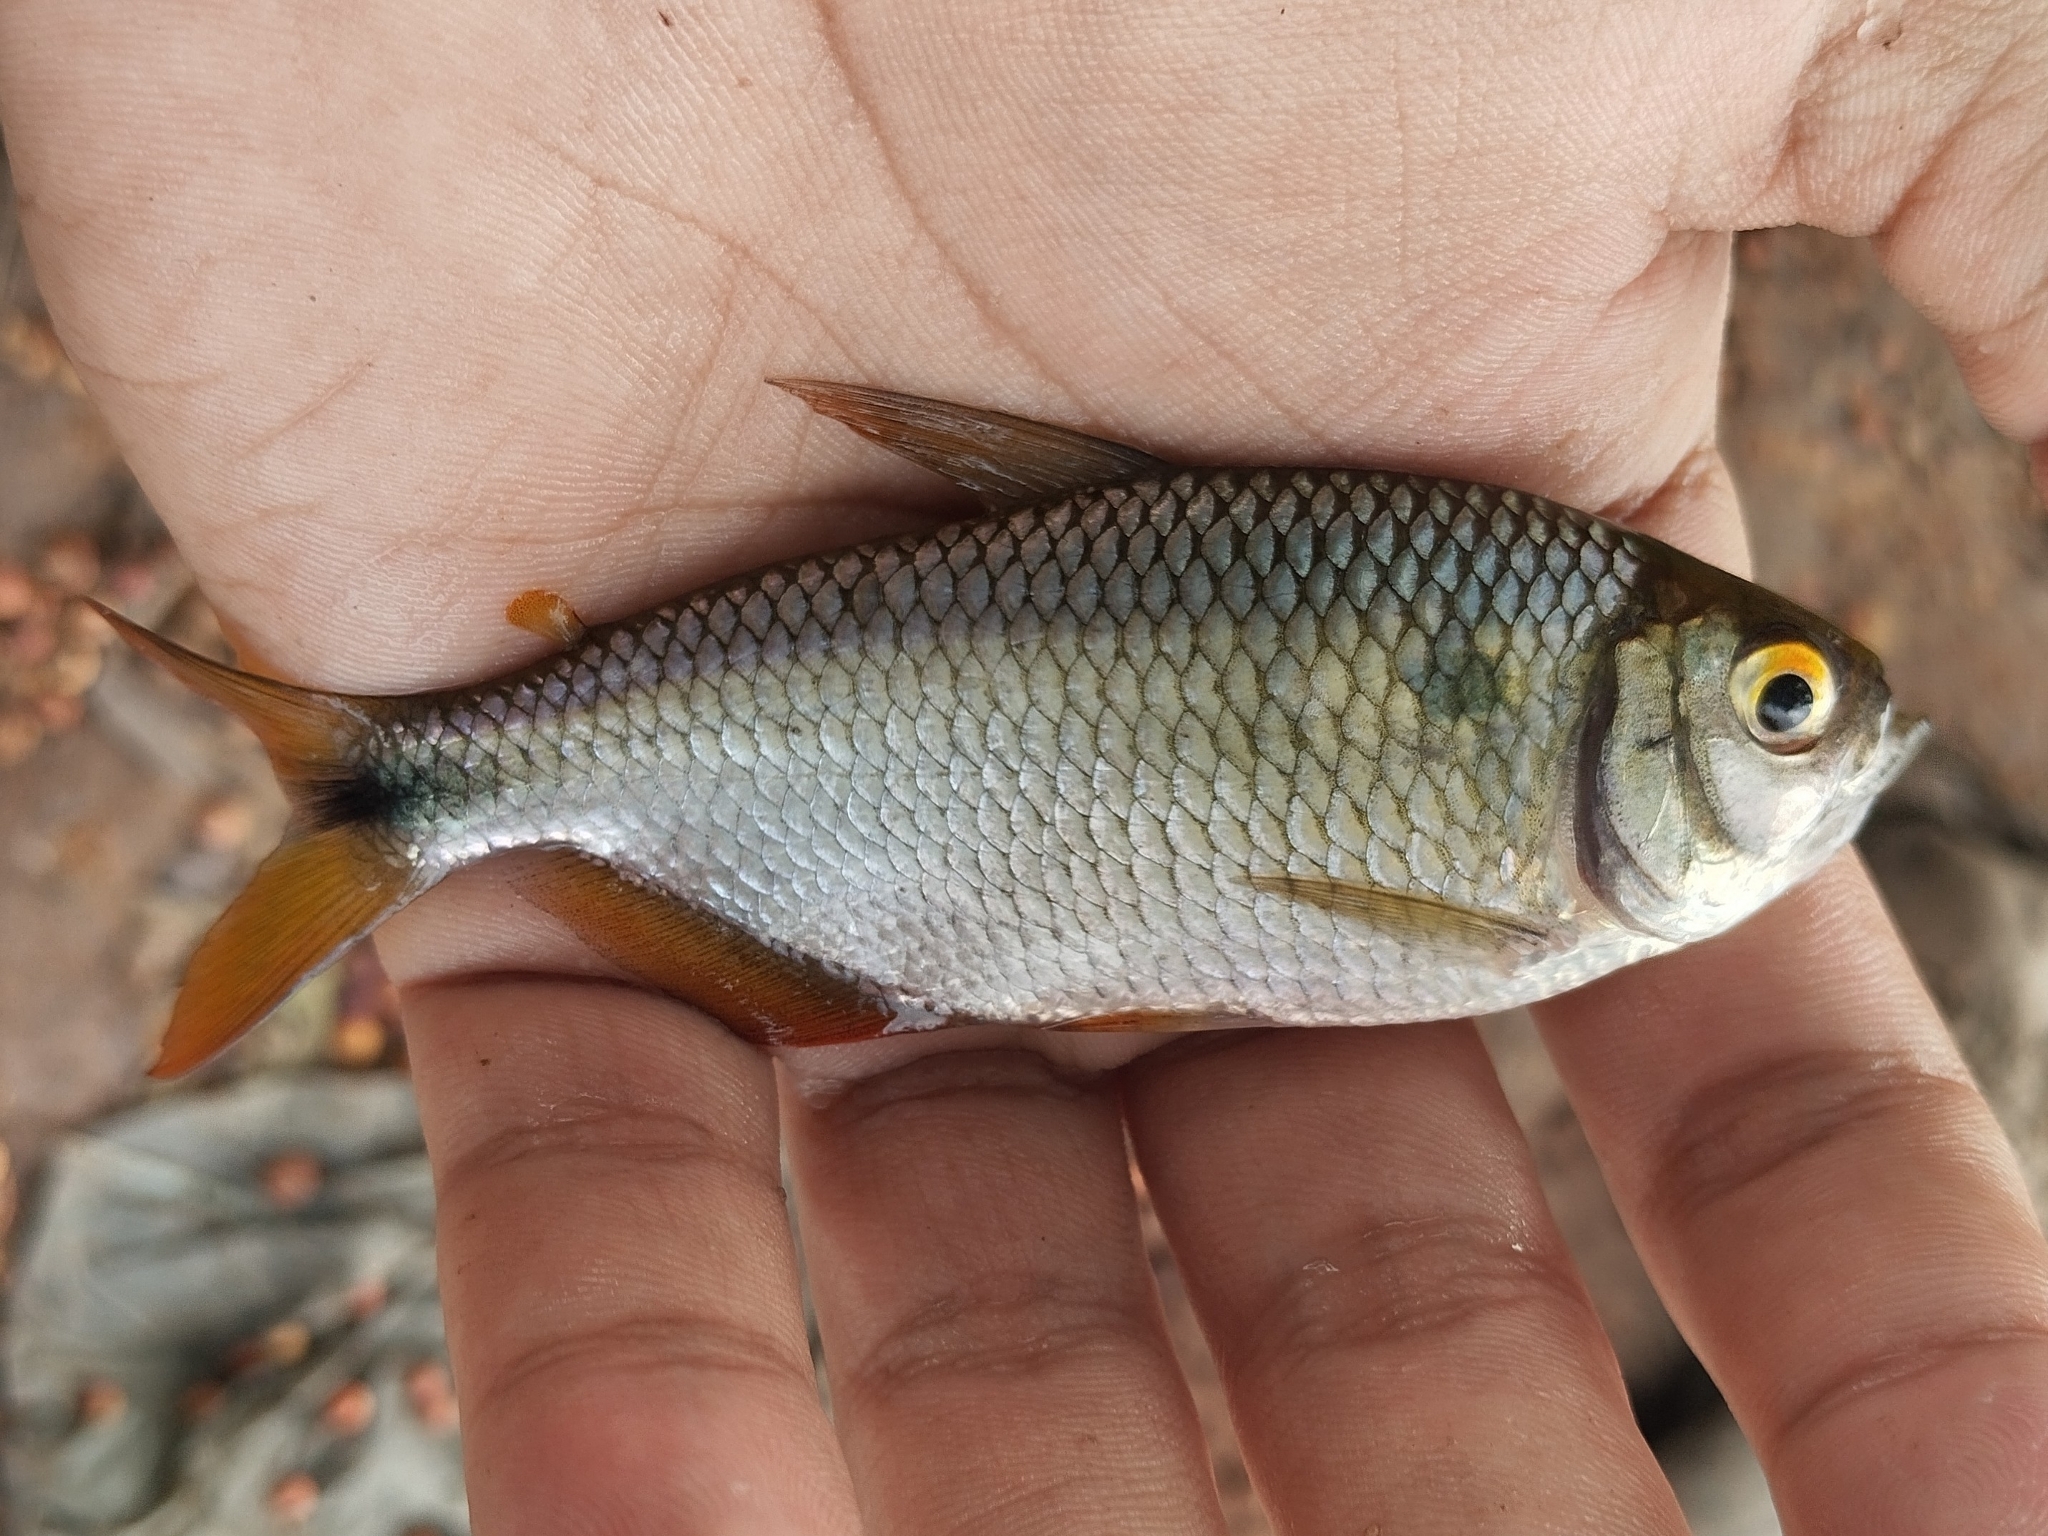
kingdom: Animalia
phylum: Chordata
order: Characiformes
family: Characidae
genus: Astyanax
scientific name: Astyanax bimaculatus
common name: Twospot astyanax
